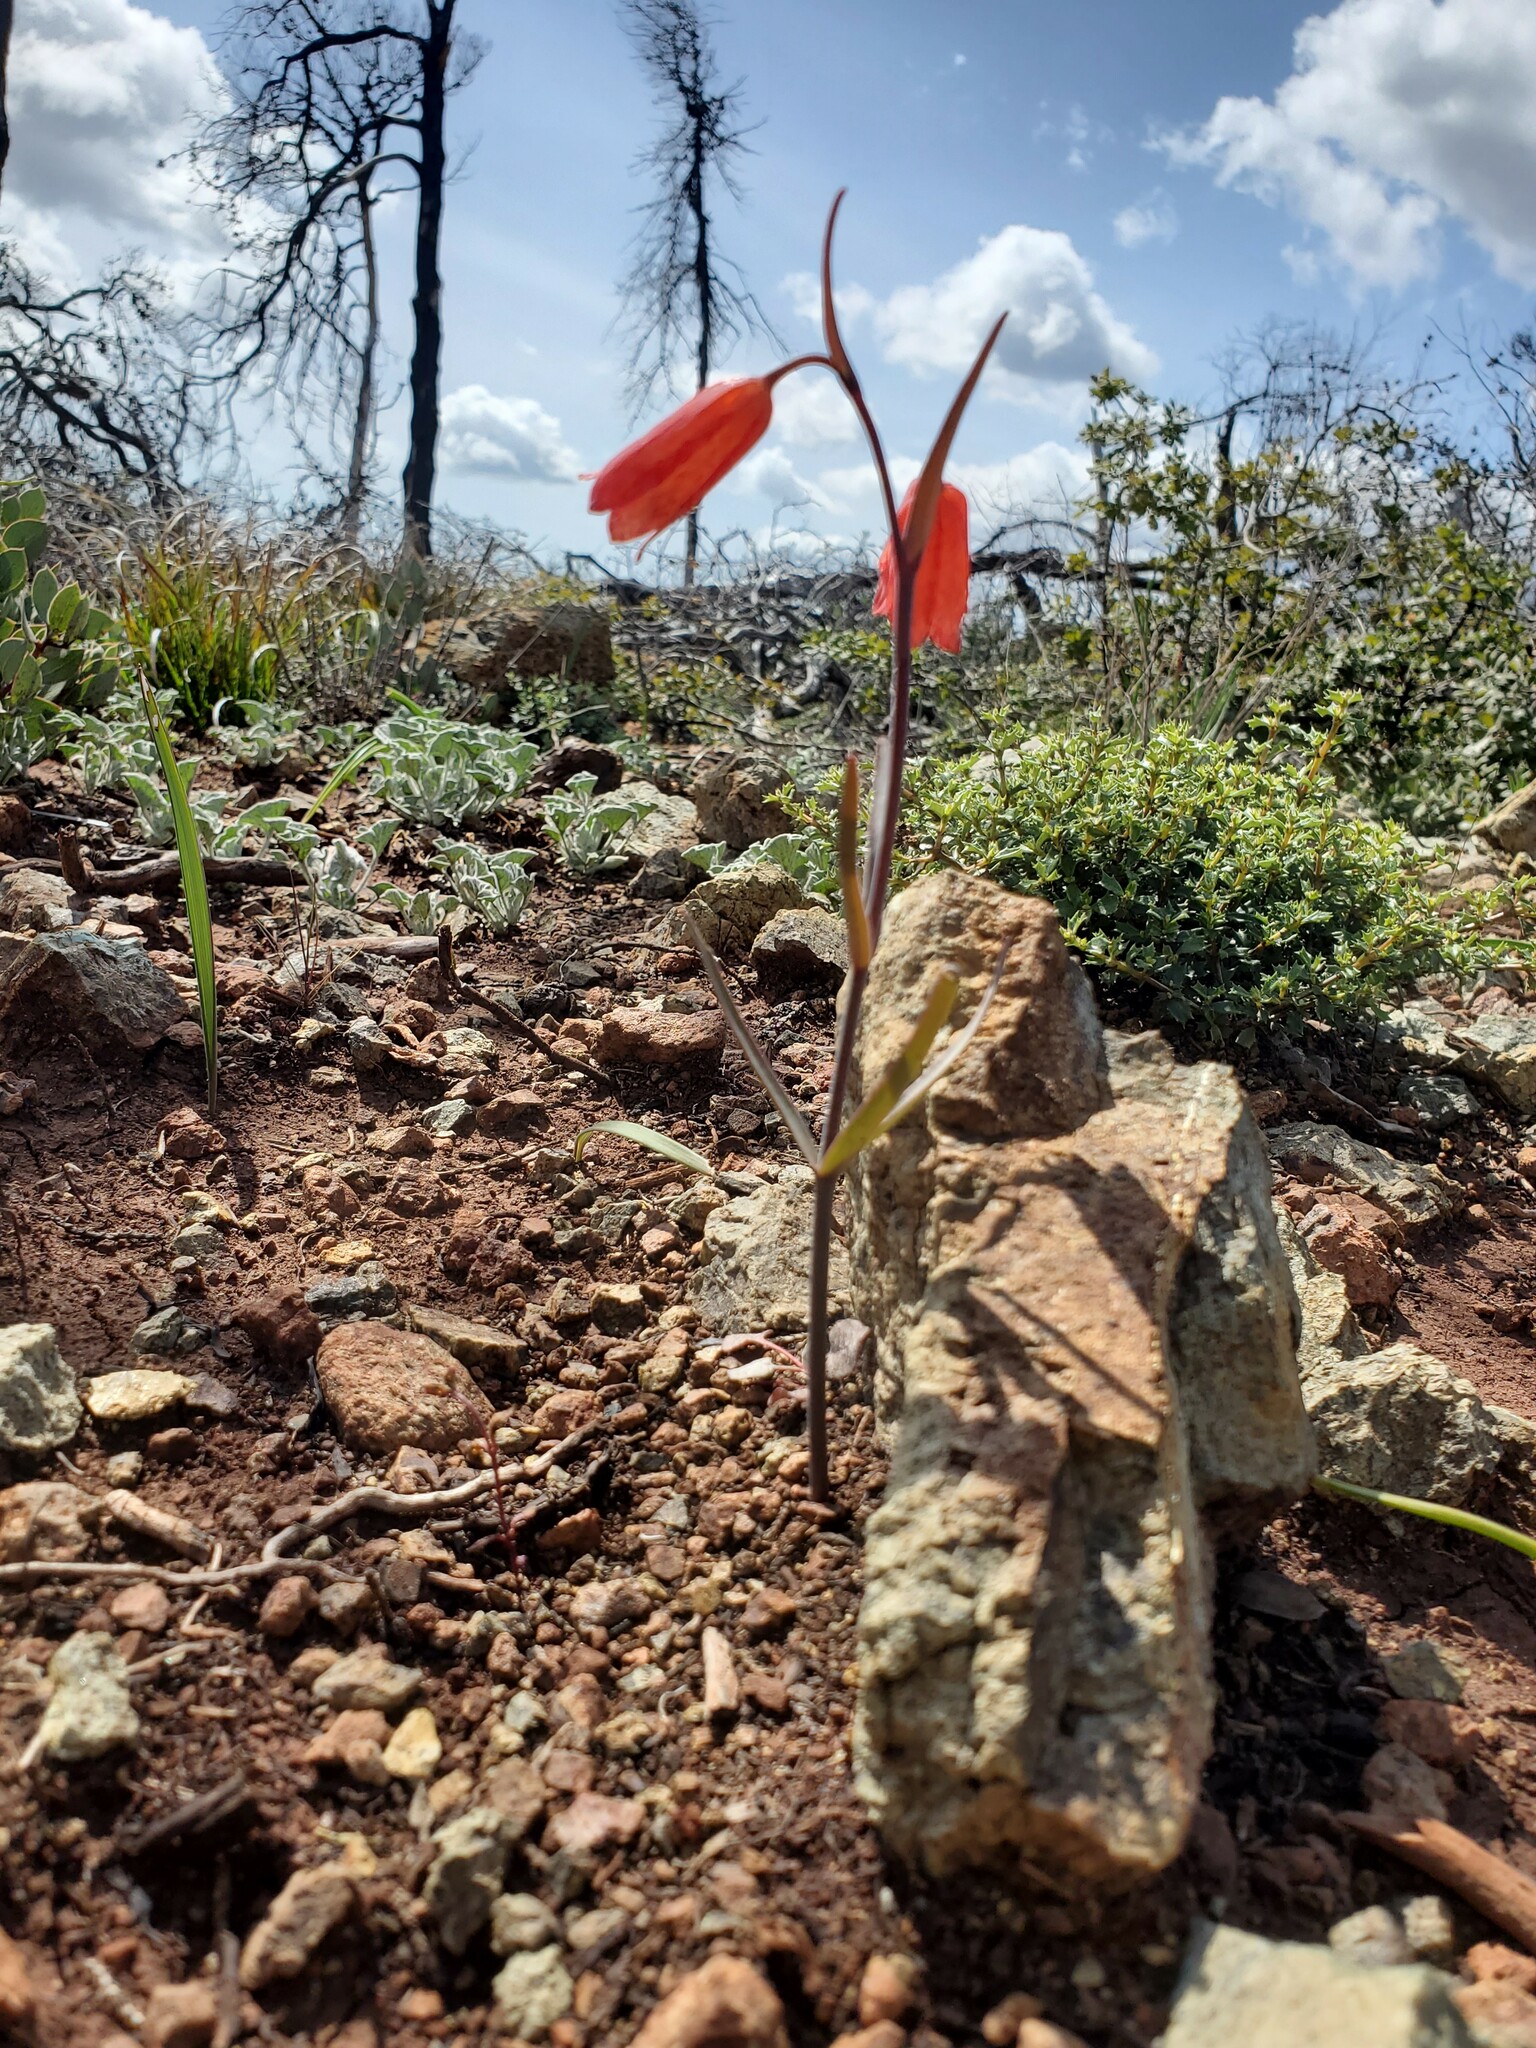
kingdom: Plantae
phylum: Tracheophyta
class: Liliopsida
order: Liliales
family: Liliaceae
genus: Fritillaria
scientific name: Fritillaria recurva
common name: Scarlet fritillary
